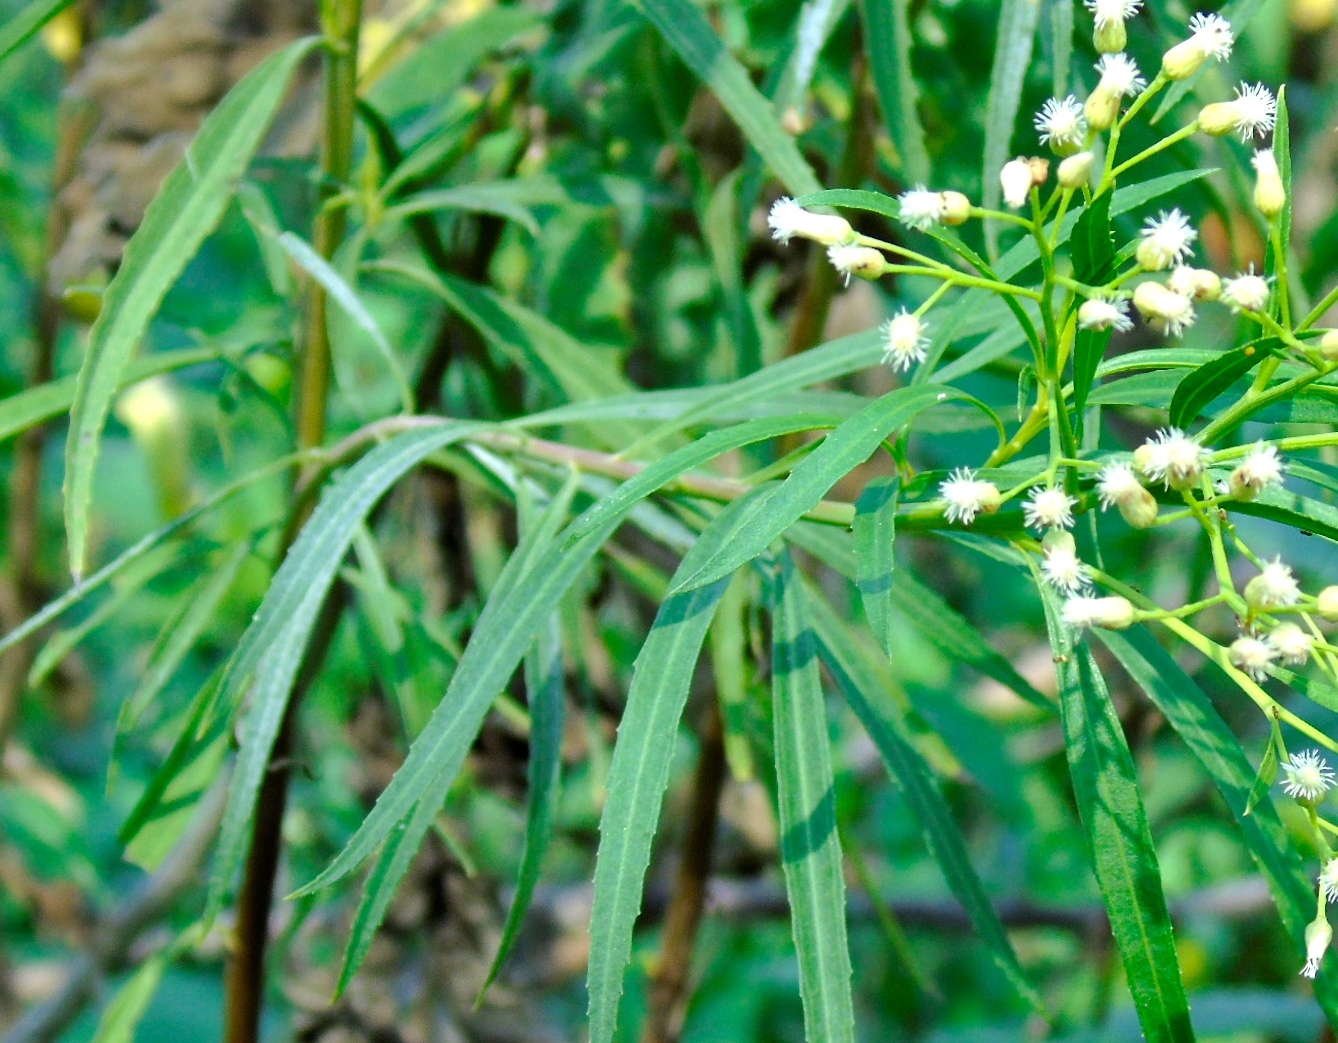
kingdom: Plantae
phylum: Tracheophyta
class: Magnoliopsida
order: Asterales
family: Asteraceae
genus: Baccharis
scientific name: Baccharis salicifolia
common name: Sticky baccharis
